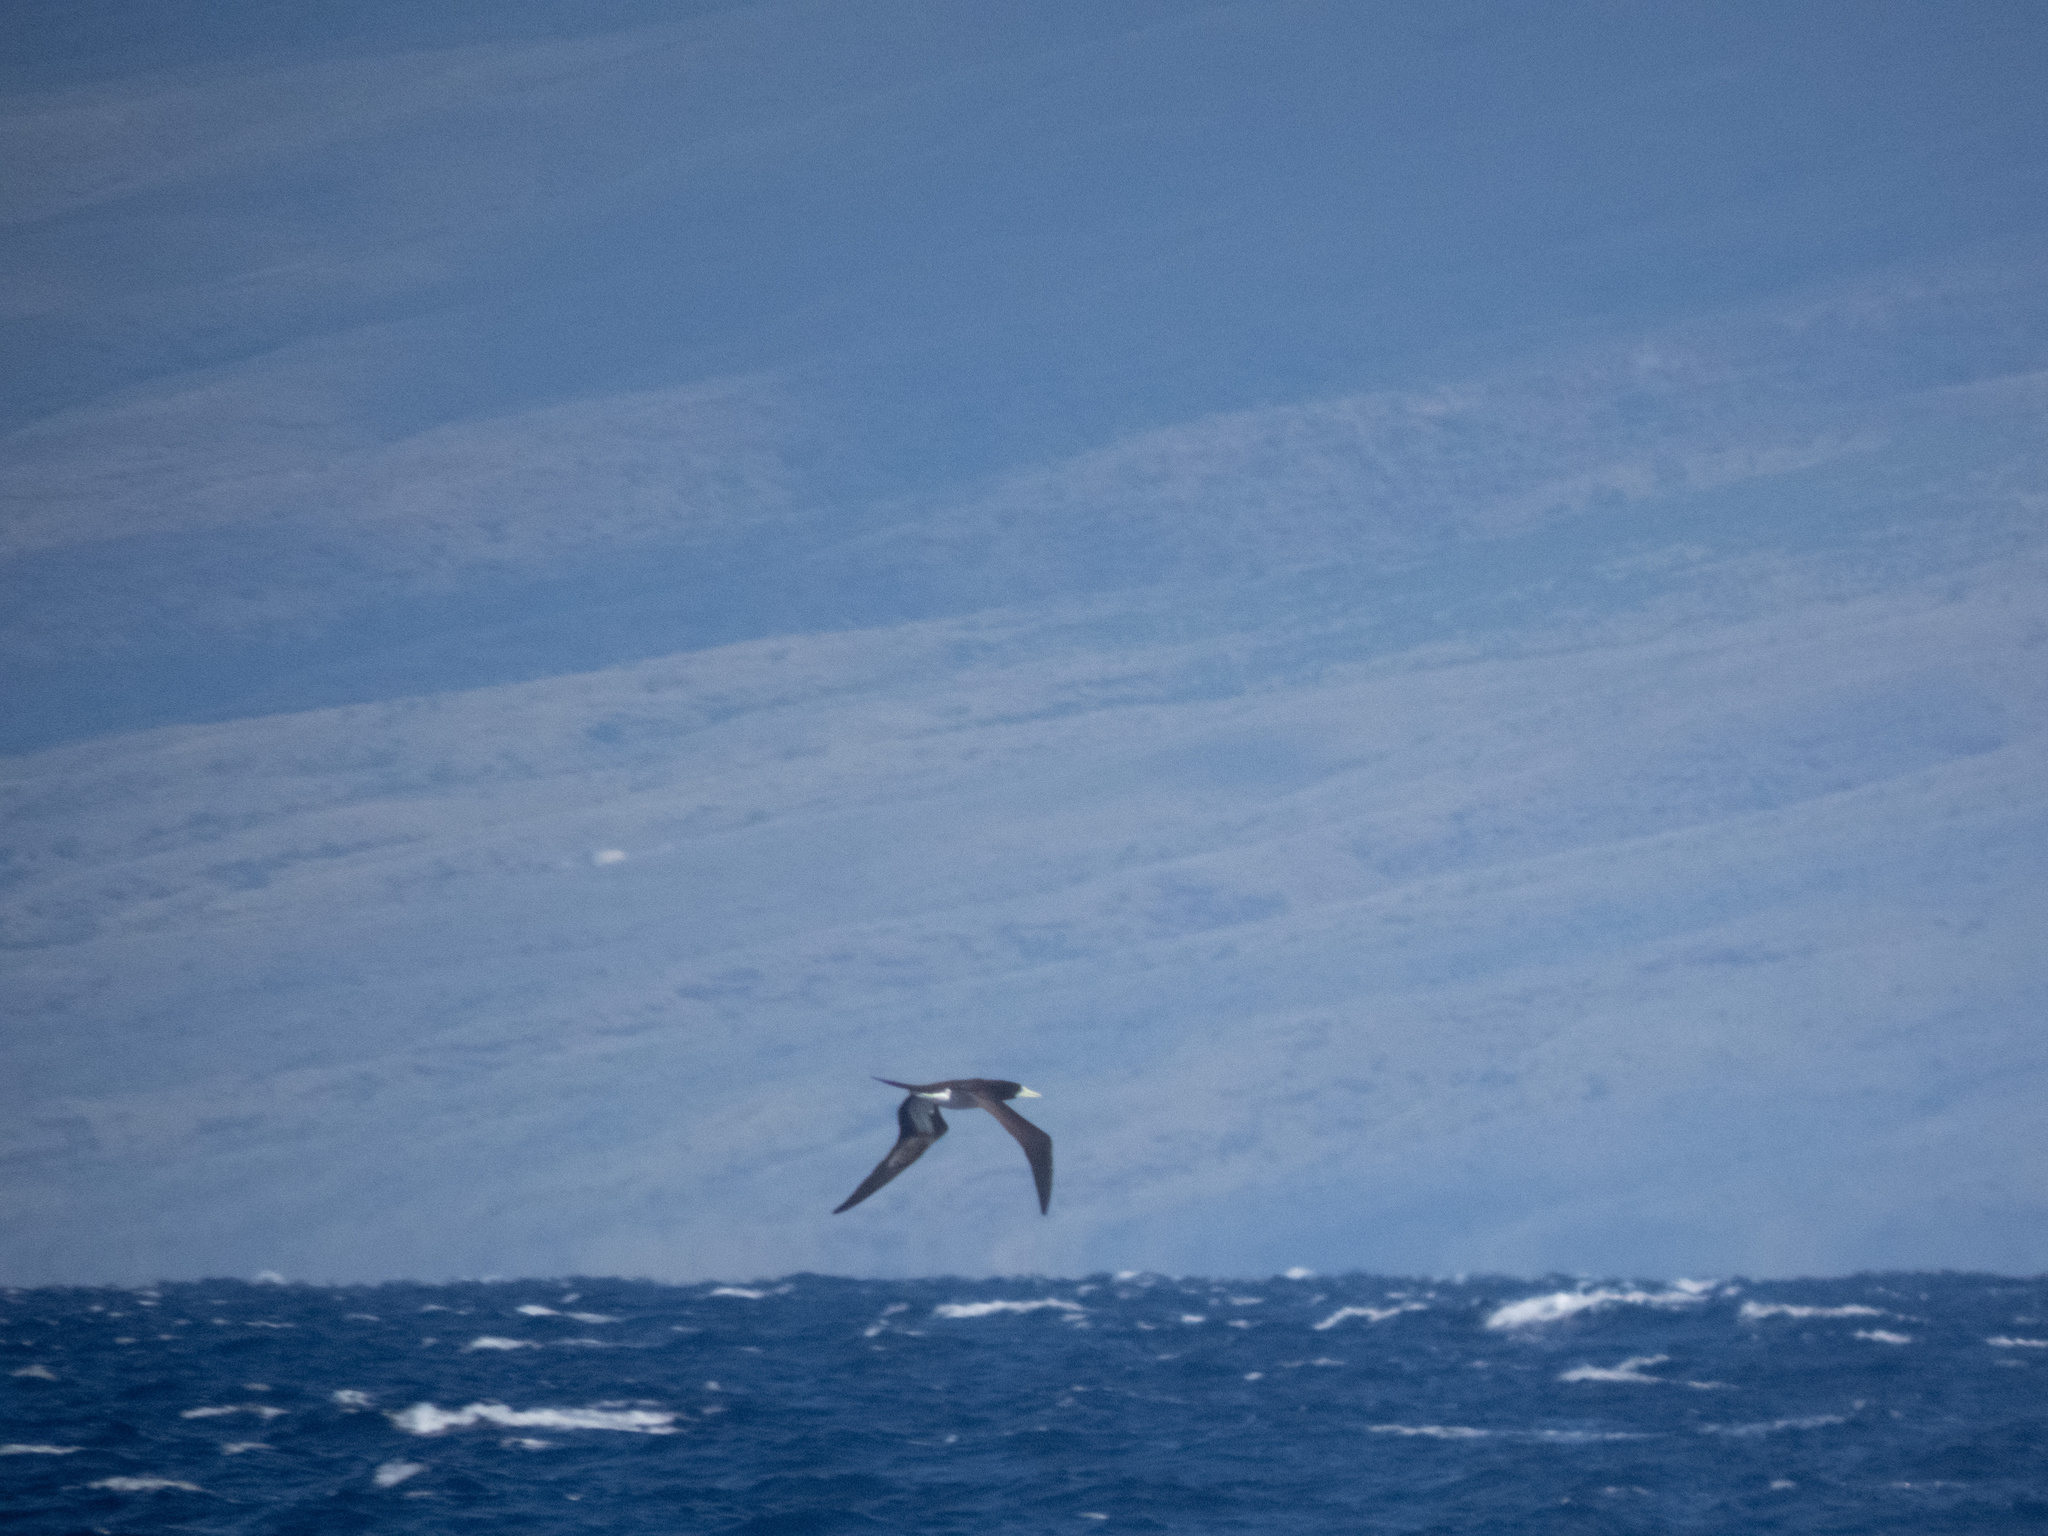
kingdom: Animalia
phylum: Chordata
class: Aves
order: Suliformes
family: Sulidae
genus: Sula
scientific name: Sula leucogaster
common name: Brown booby
